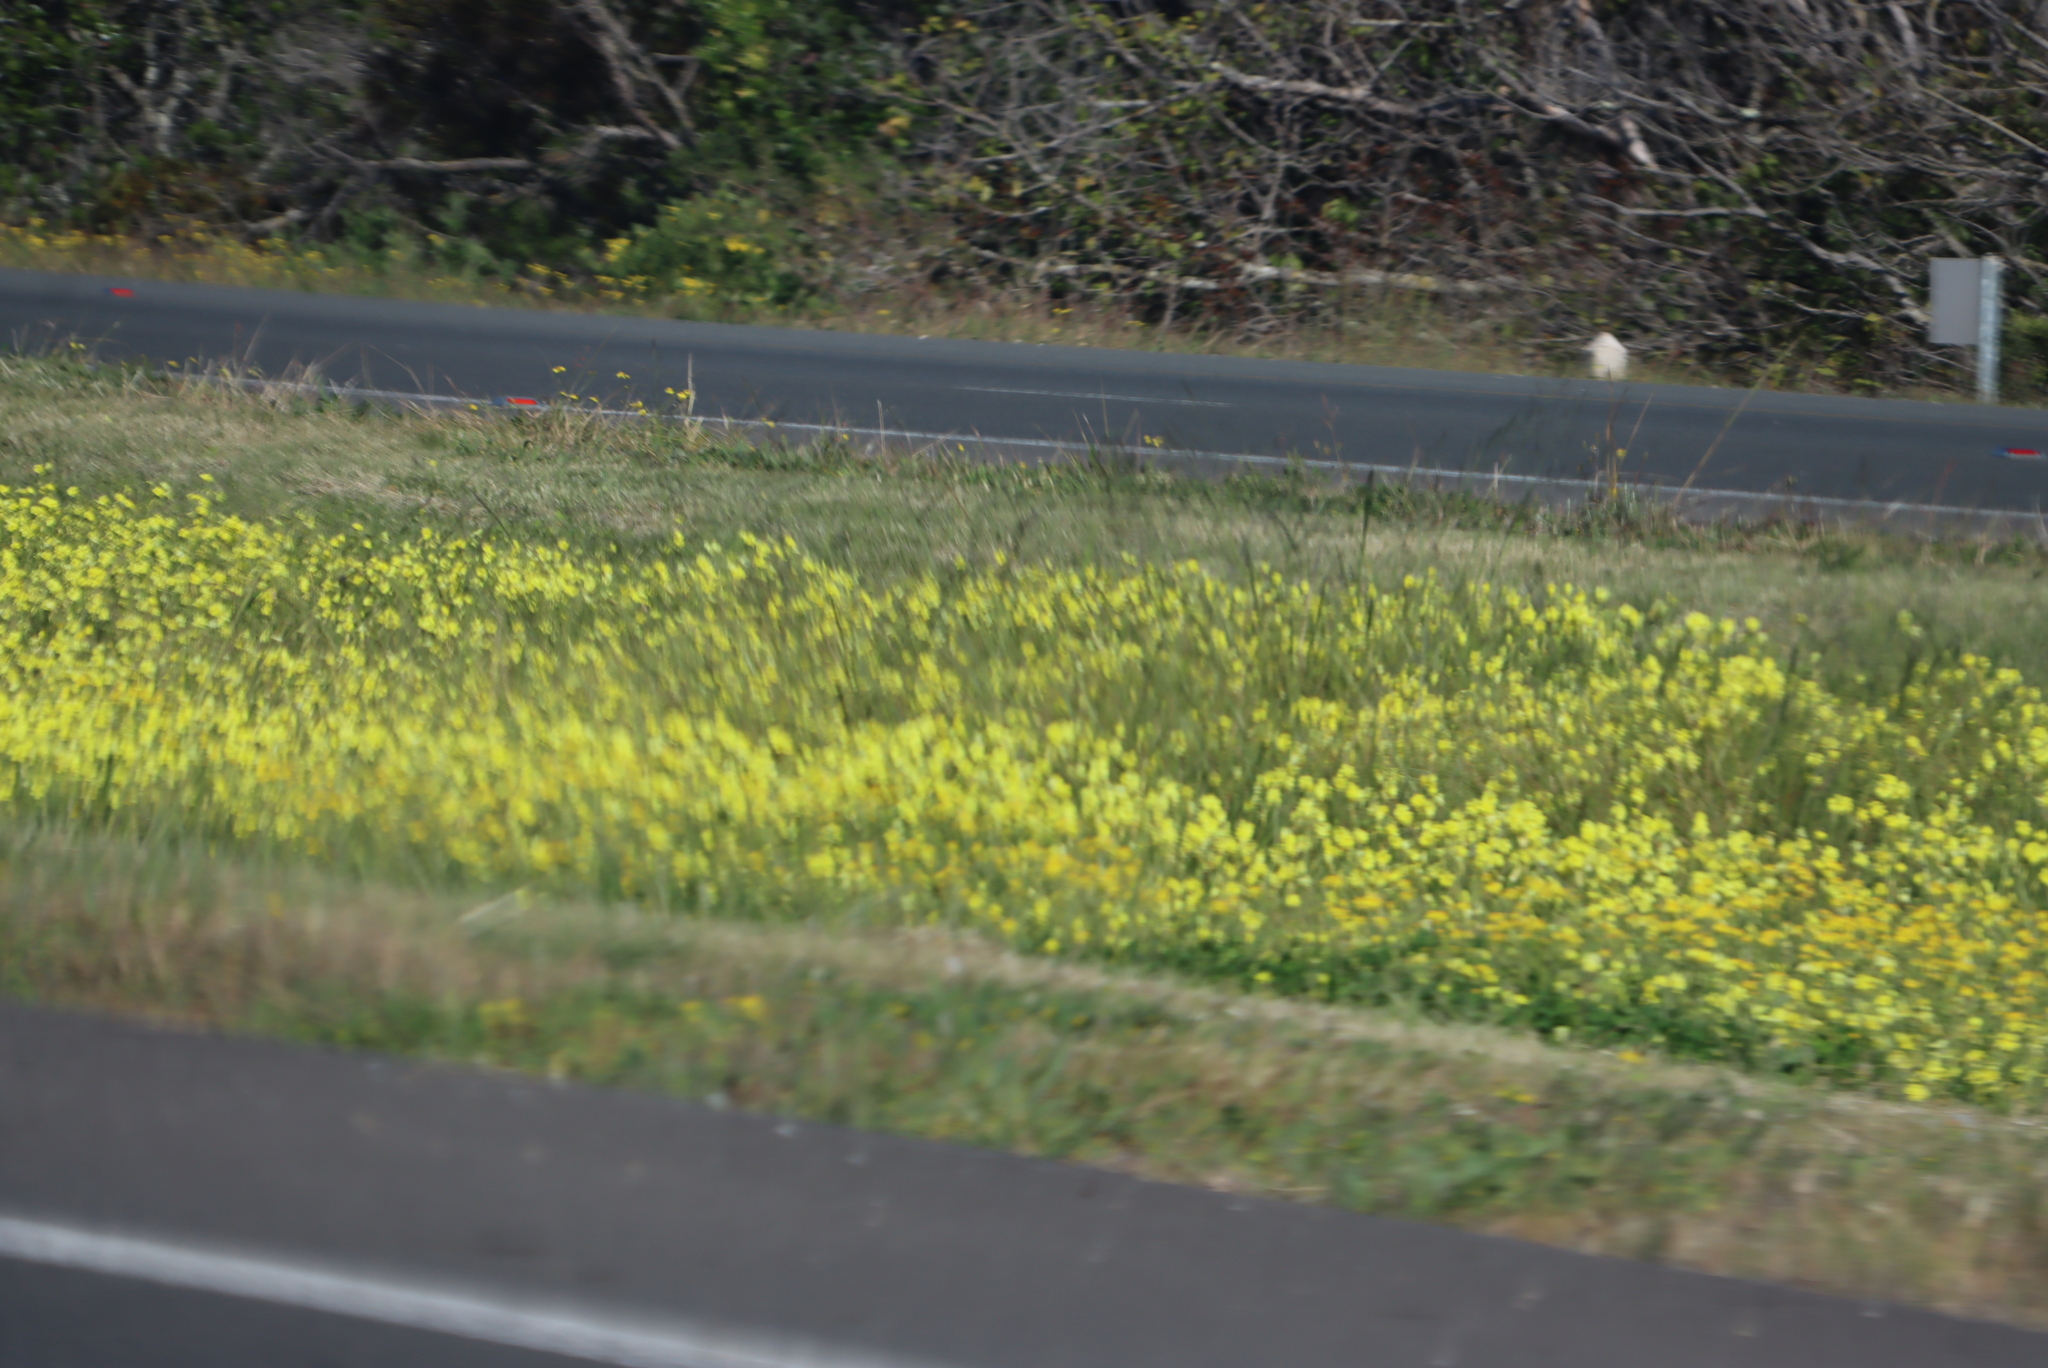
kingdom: Plantae
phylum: Tracheophyta
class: Magnoliopsida
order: Oxalidales
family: Oxalidaceae
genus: Oxalis
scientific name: Oxalis pes-caprae
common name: Bermuda-buttercup
